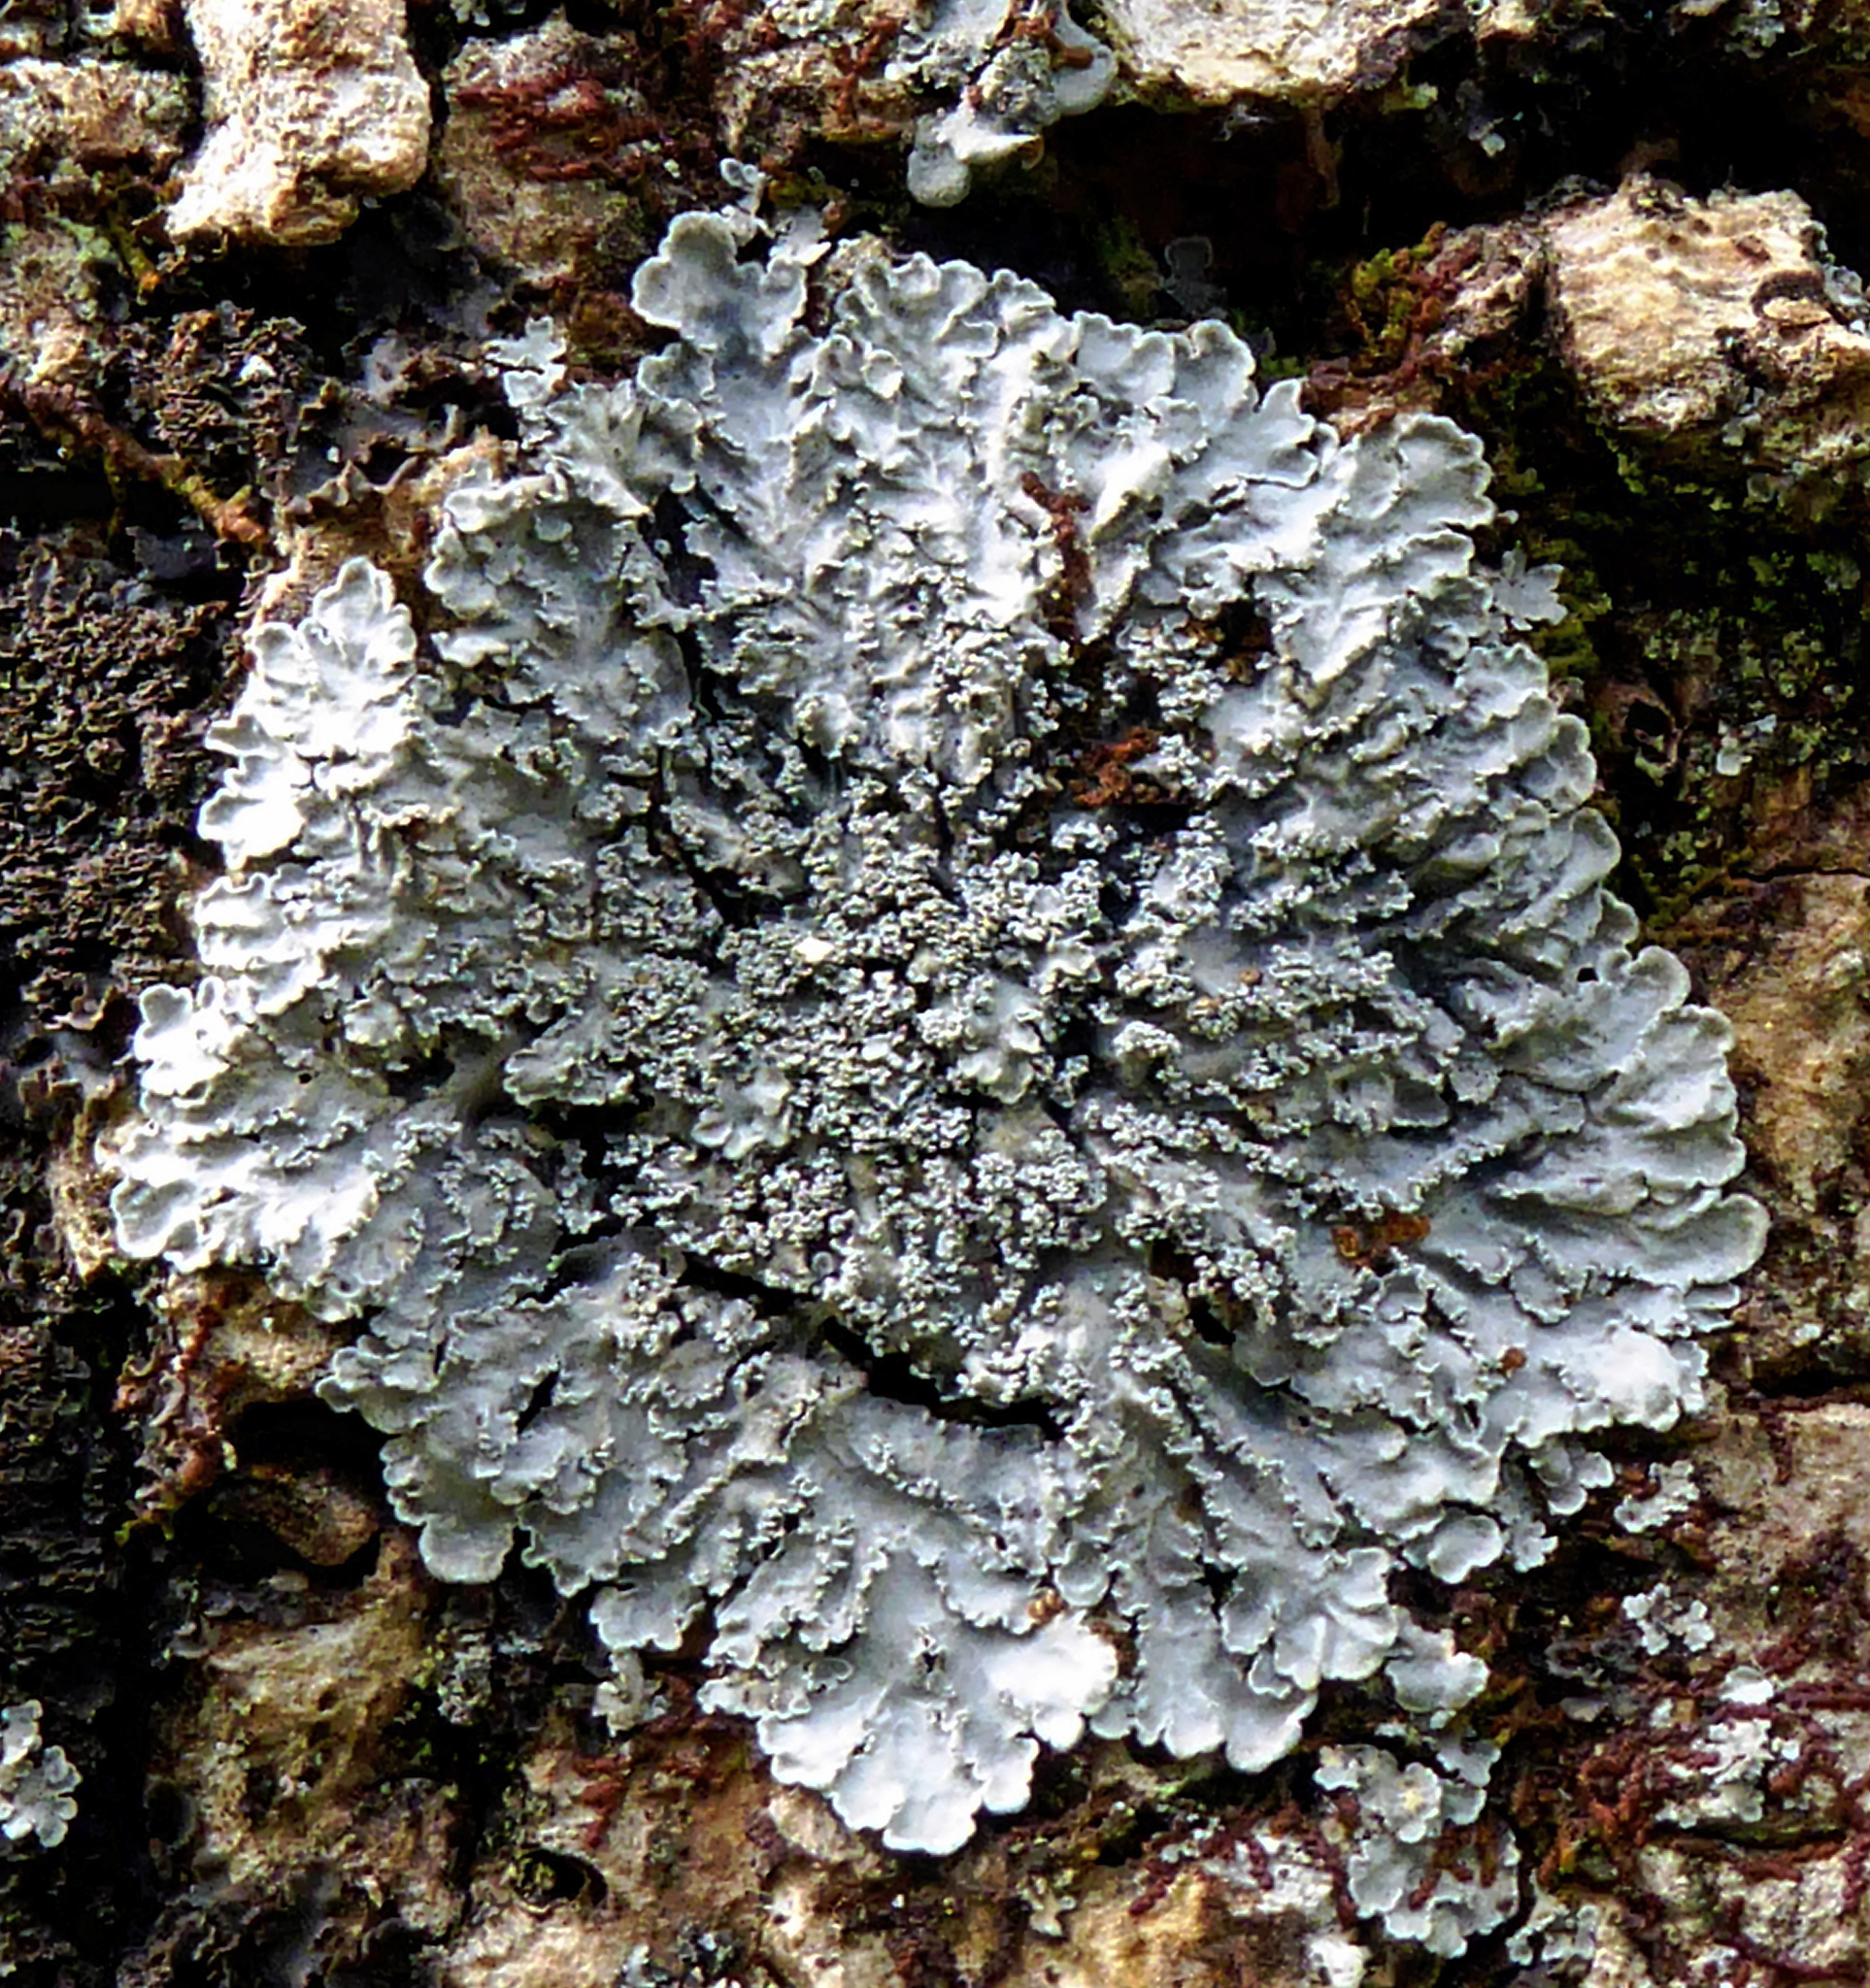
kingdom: Fungi
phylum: Ascomycota
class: Lecanoromycetes
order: Peltigerales
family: Pannariaceae
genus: Pannaria
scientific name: Pannaria elixii
